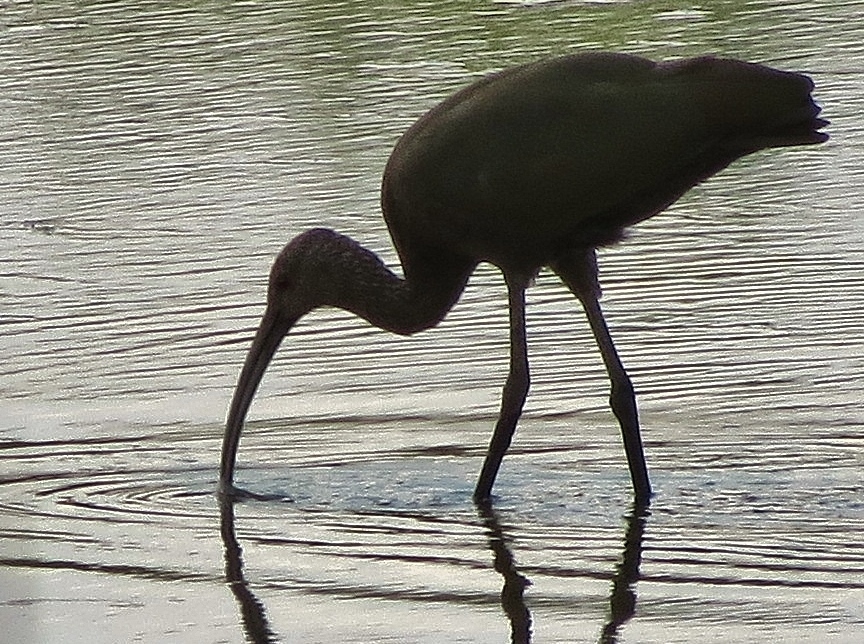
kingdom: Animalia
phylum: Chordata
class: Aves
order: Pelecaniformes
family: Threskiornithidae
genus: Plegadis
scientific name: Plegadis chihi
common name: White-faced ibis
